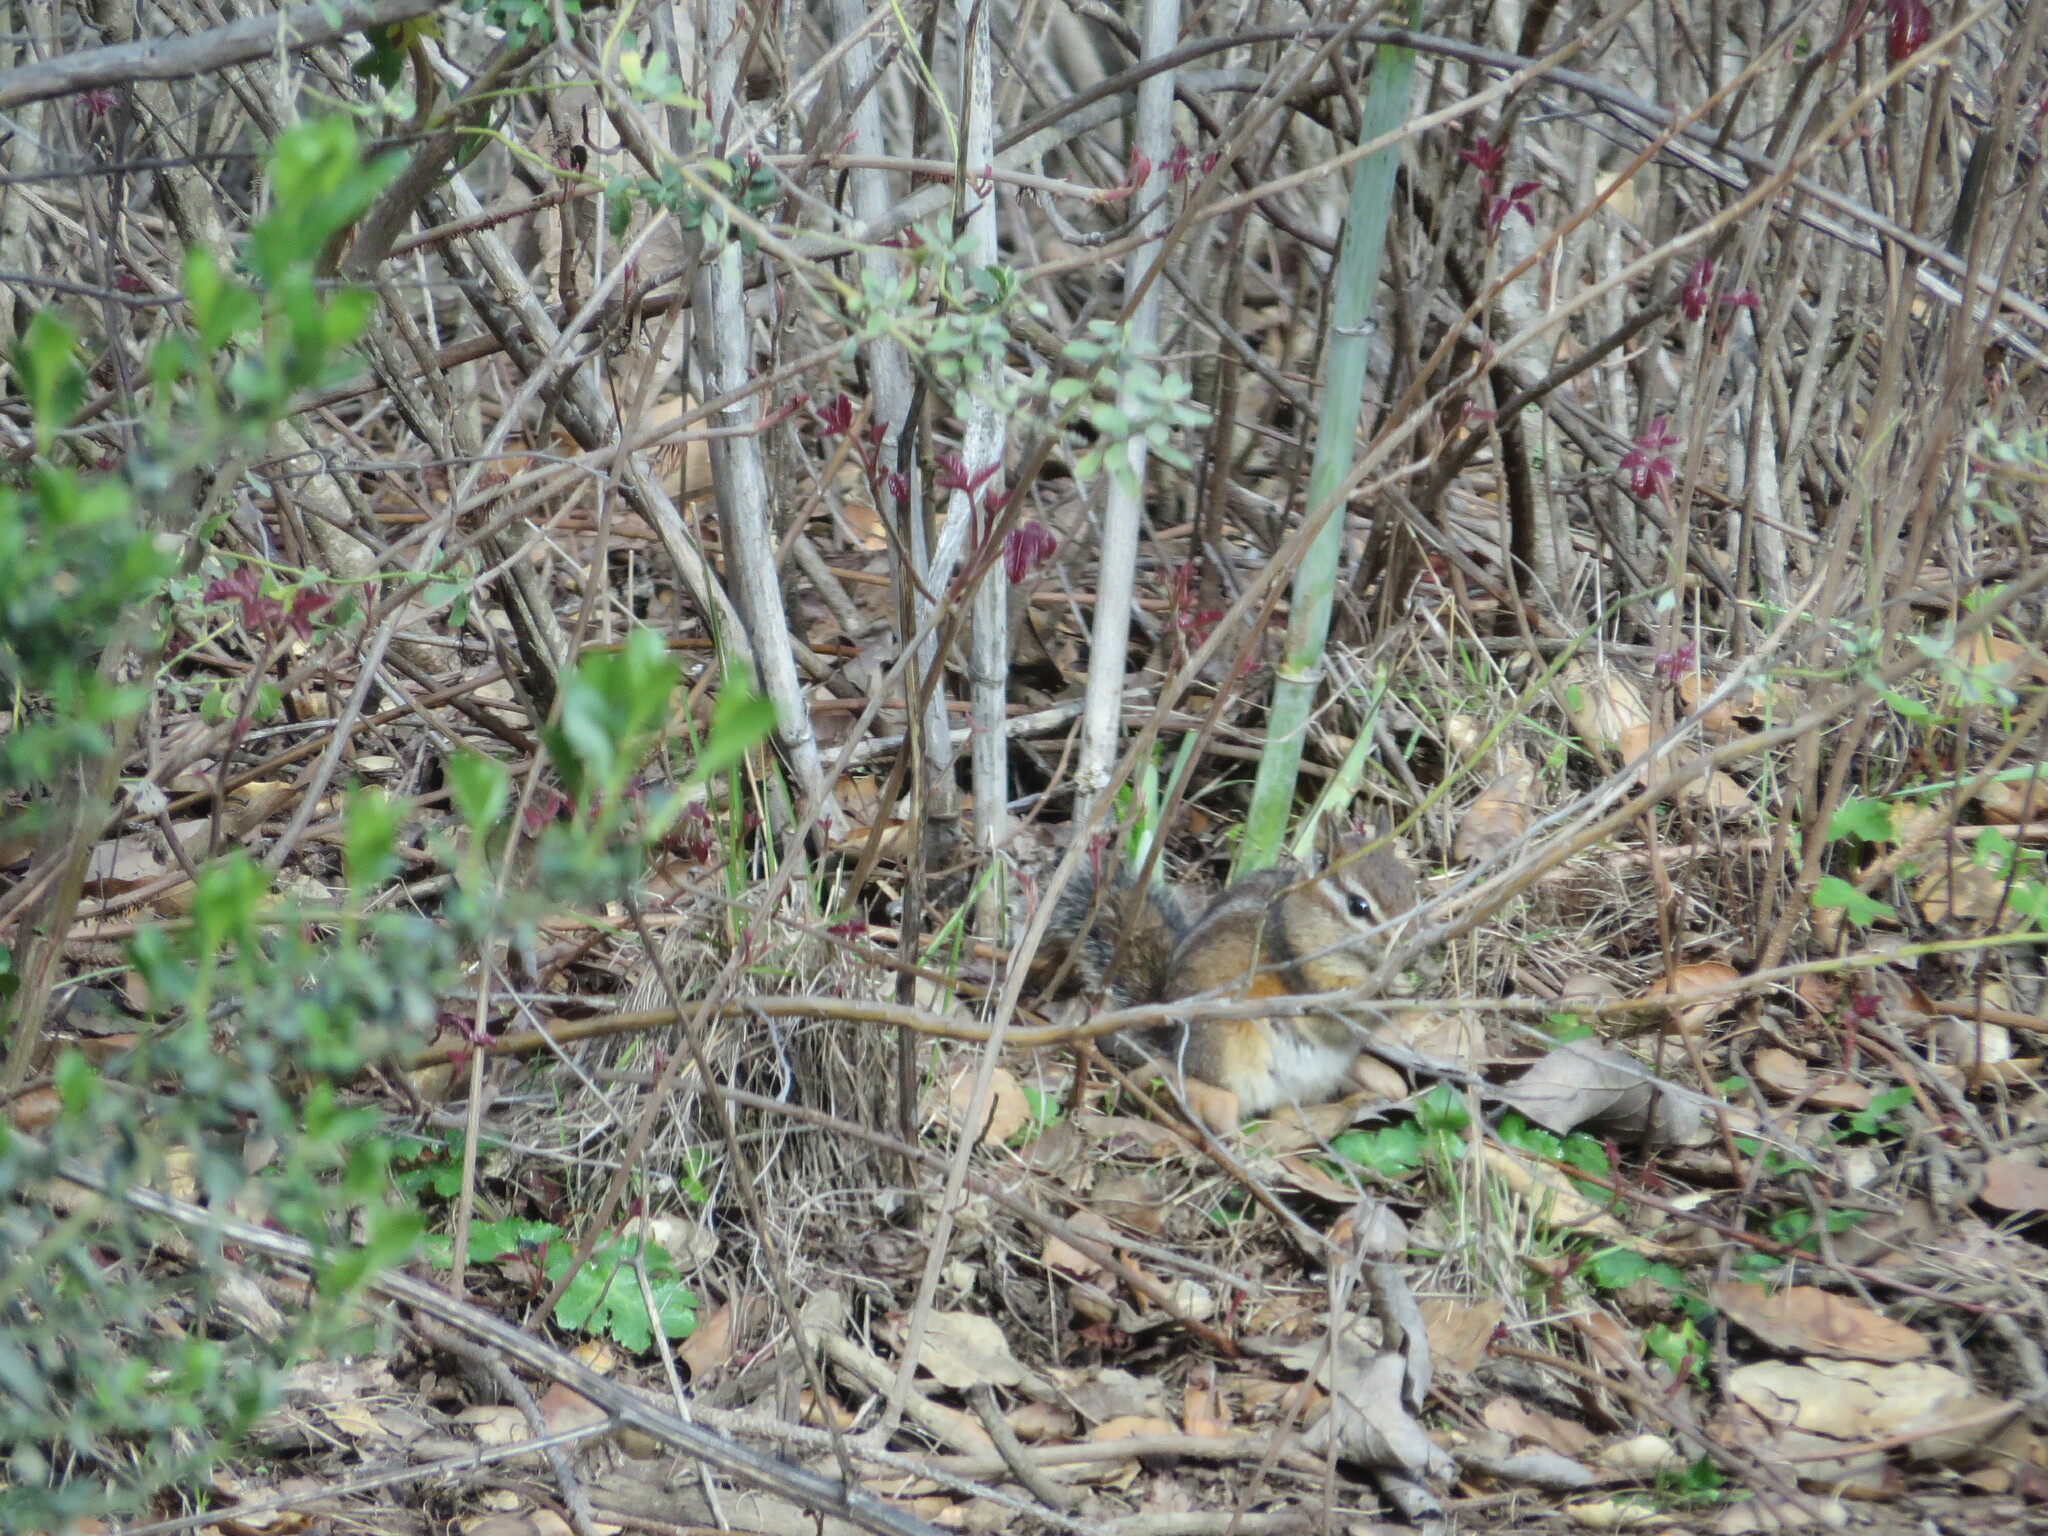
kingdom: Animalia
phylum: Chordata
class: Mammalia
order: Rodentia
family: Sciuridae
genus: Tamias
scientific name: Tamias merriami
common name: Merriam's chipmunk
